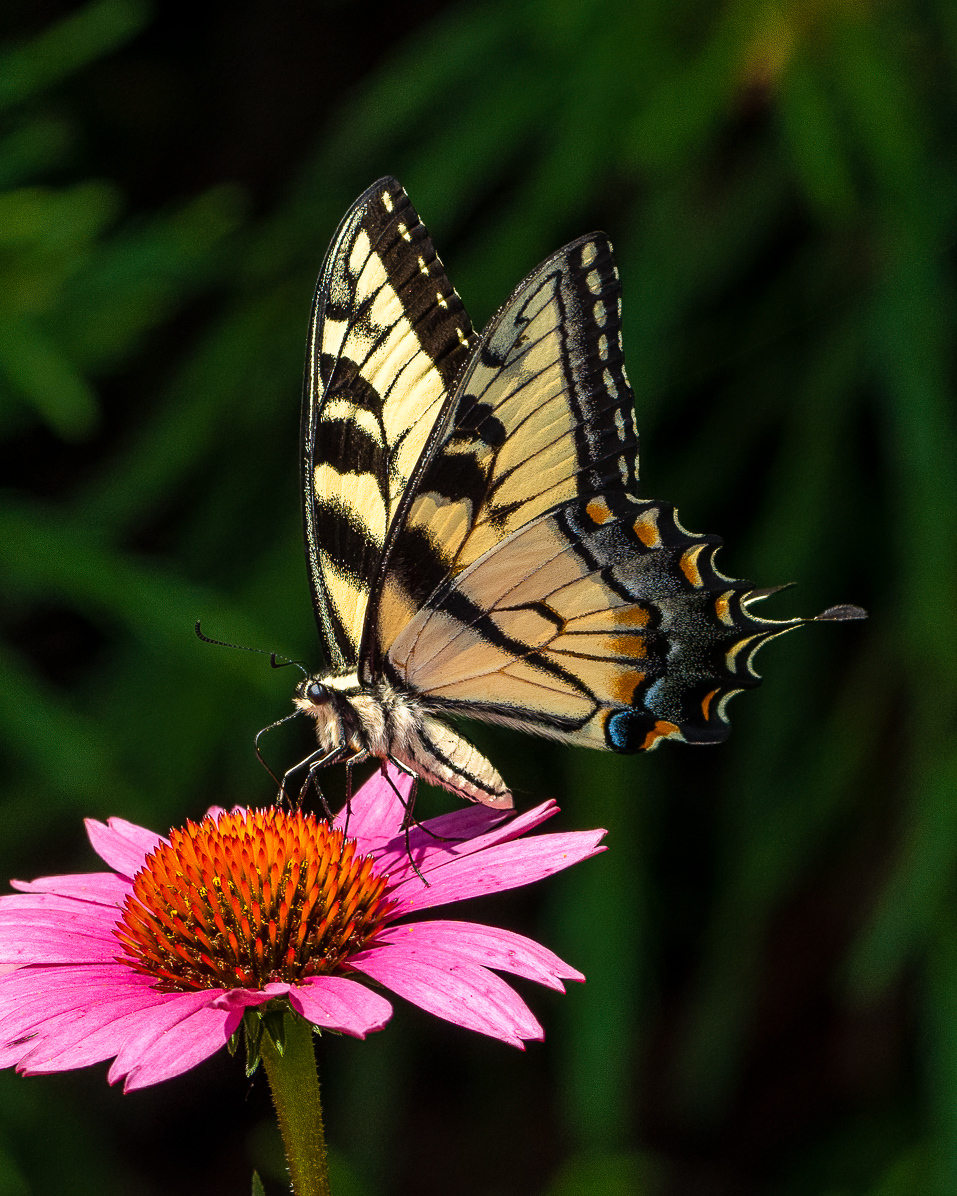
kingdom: Animalia
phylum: Arthropoda
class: Insecta
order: Lepidoptera
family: Papilionidae
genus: Papilio
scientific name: Papilio glaucus
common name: Tiger swallowtail
